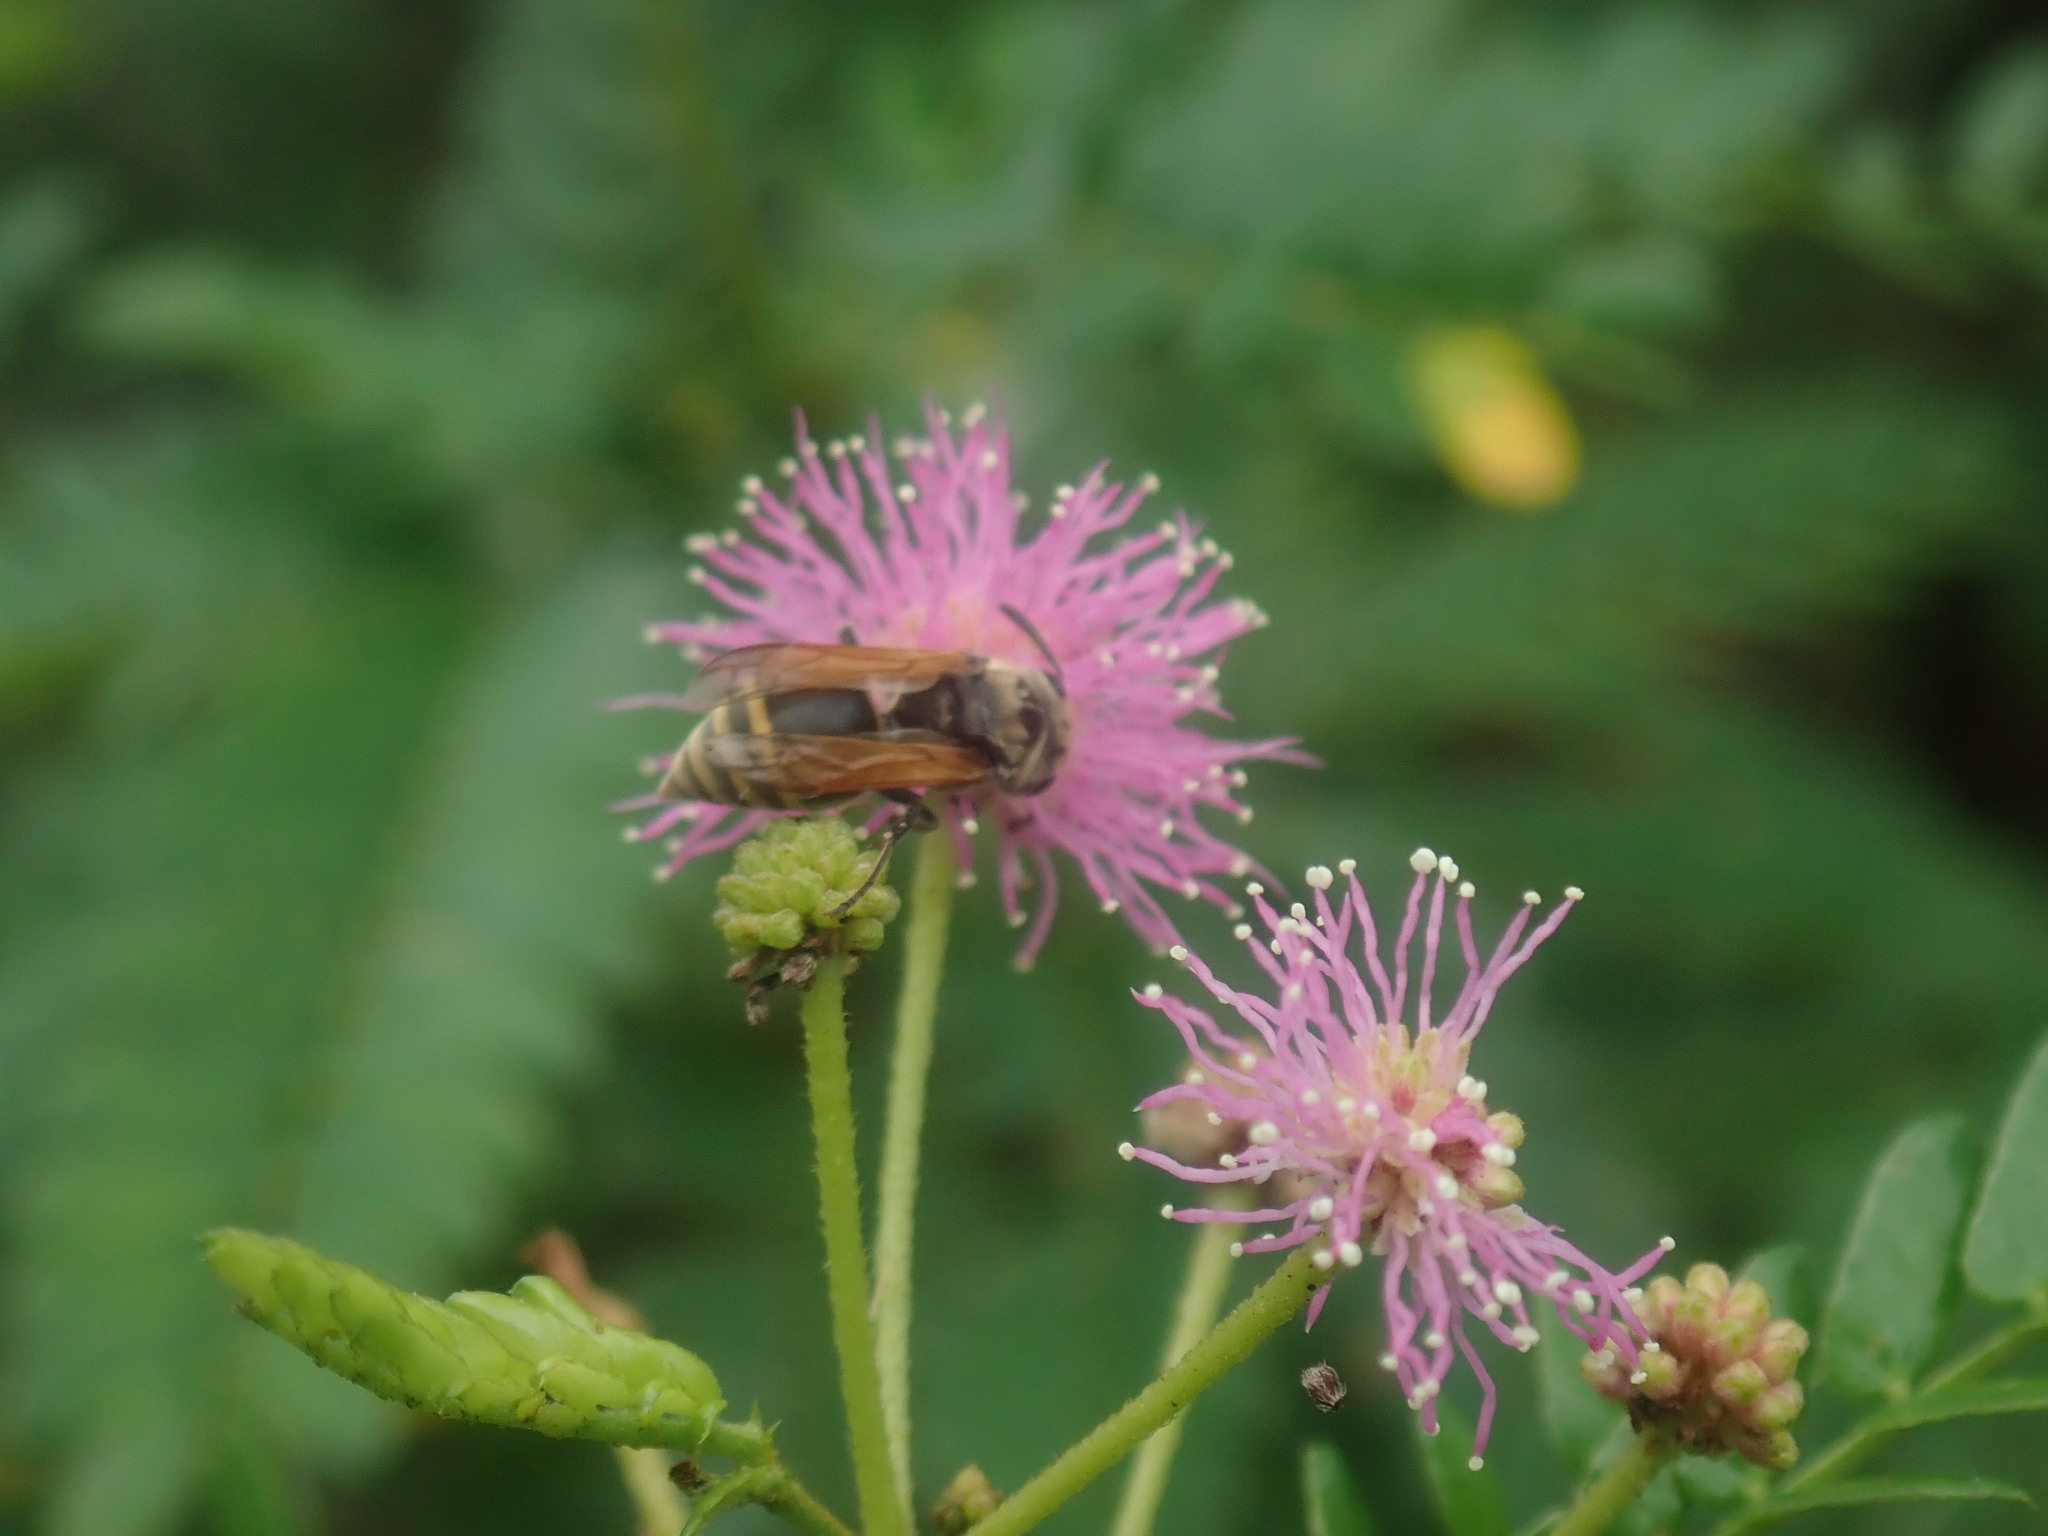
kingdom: Animalia
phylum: Arthropoda
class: Insecta
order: Hymenoptera
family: Vespidae
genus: Brachygastra
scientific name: Brachygastra mellifica
